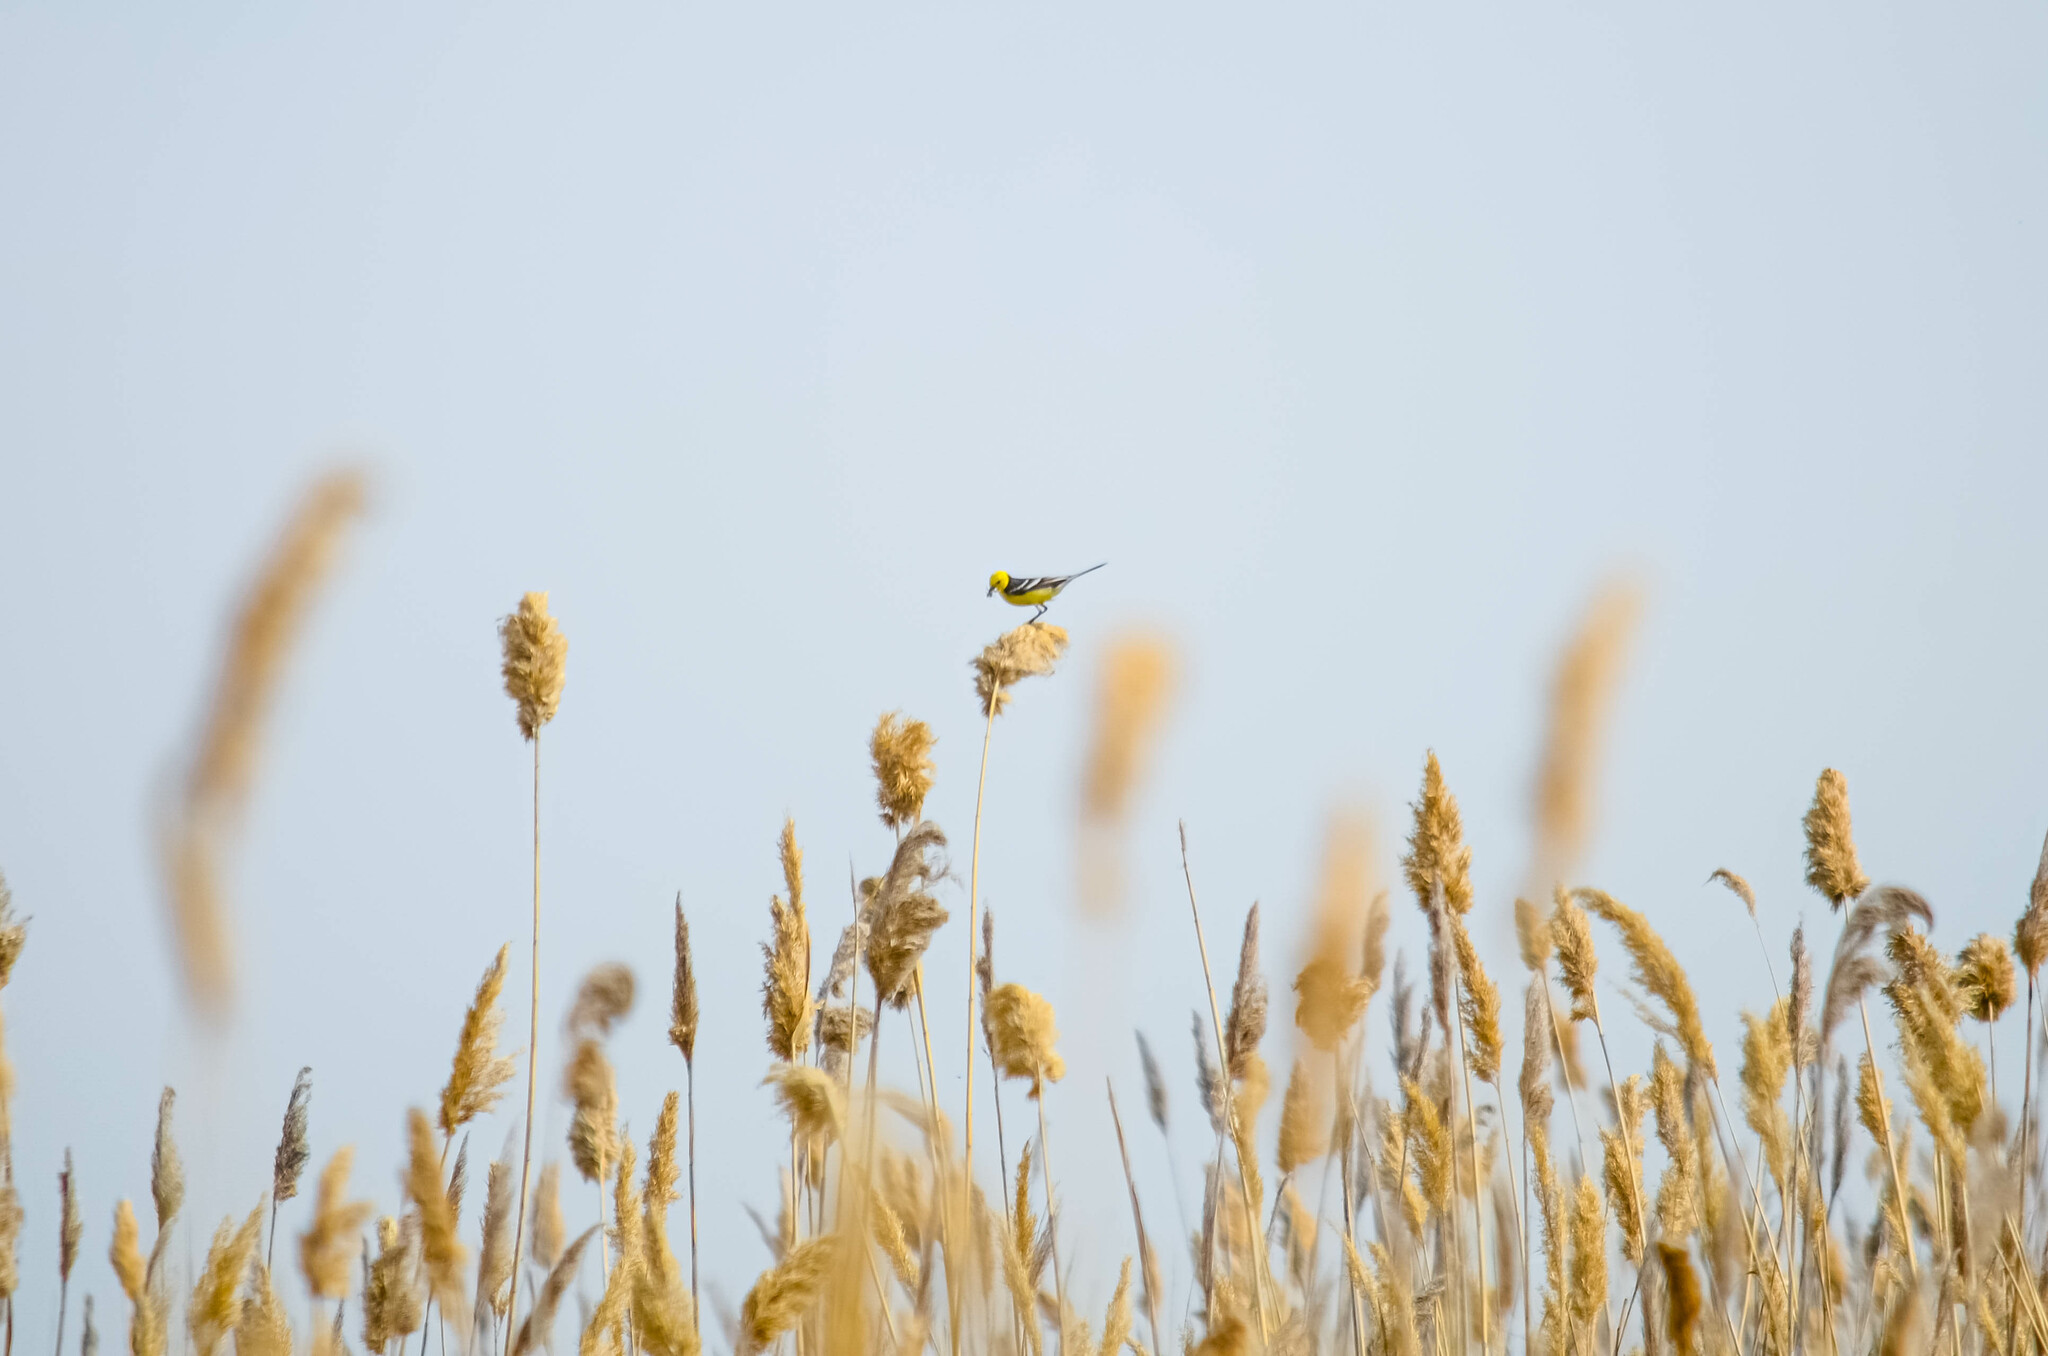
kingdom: Animalia
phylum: Chordata
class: Aves
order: Passeriformes
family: Motacillidae
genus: Motacilla
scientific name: Motacilla citreola
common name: Citrine wagtail
